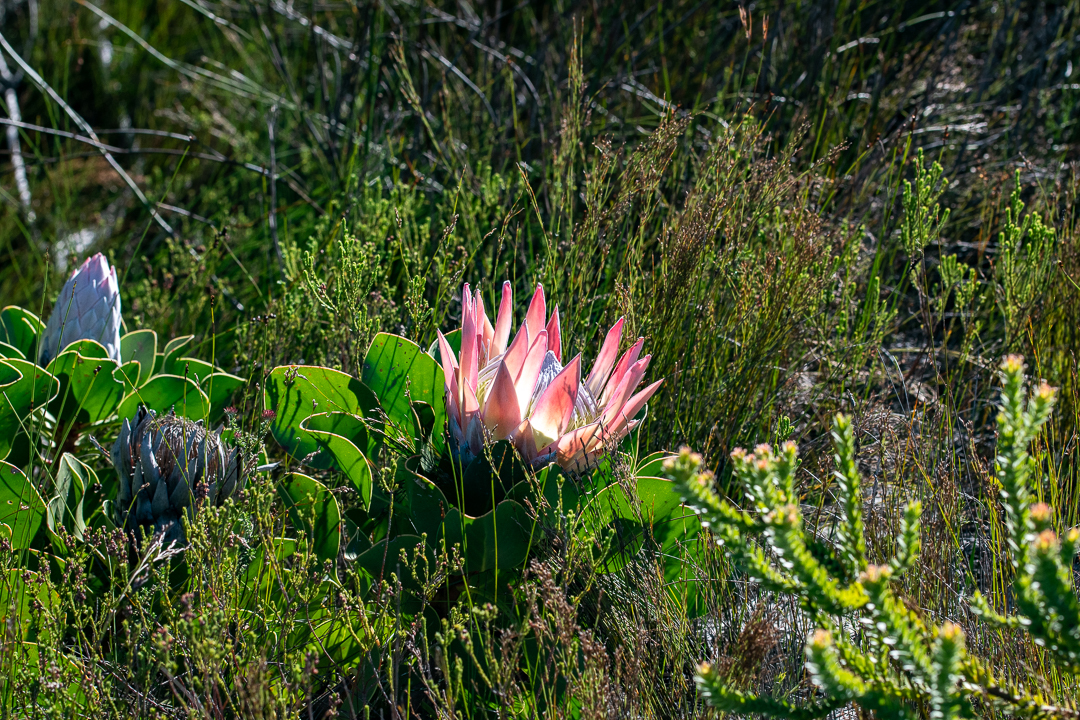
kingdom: Plantae
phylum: Tracheophyta
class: Magnoliopsida
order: Proteales
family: Proteaceae
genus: Protea
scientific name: Protea cynaroides
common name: King protea
